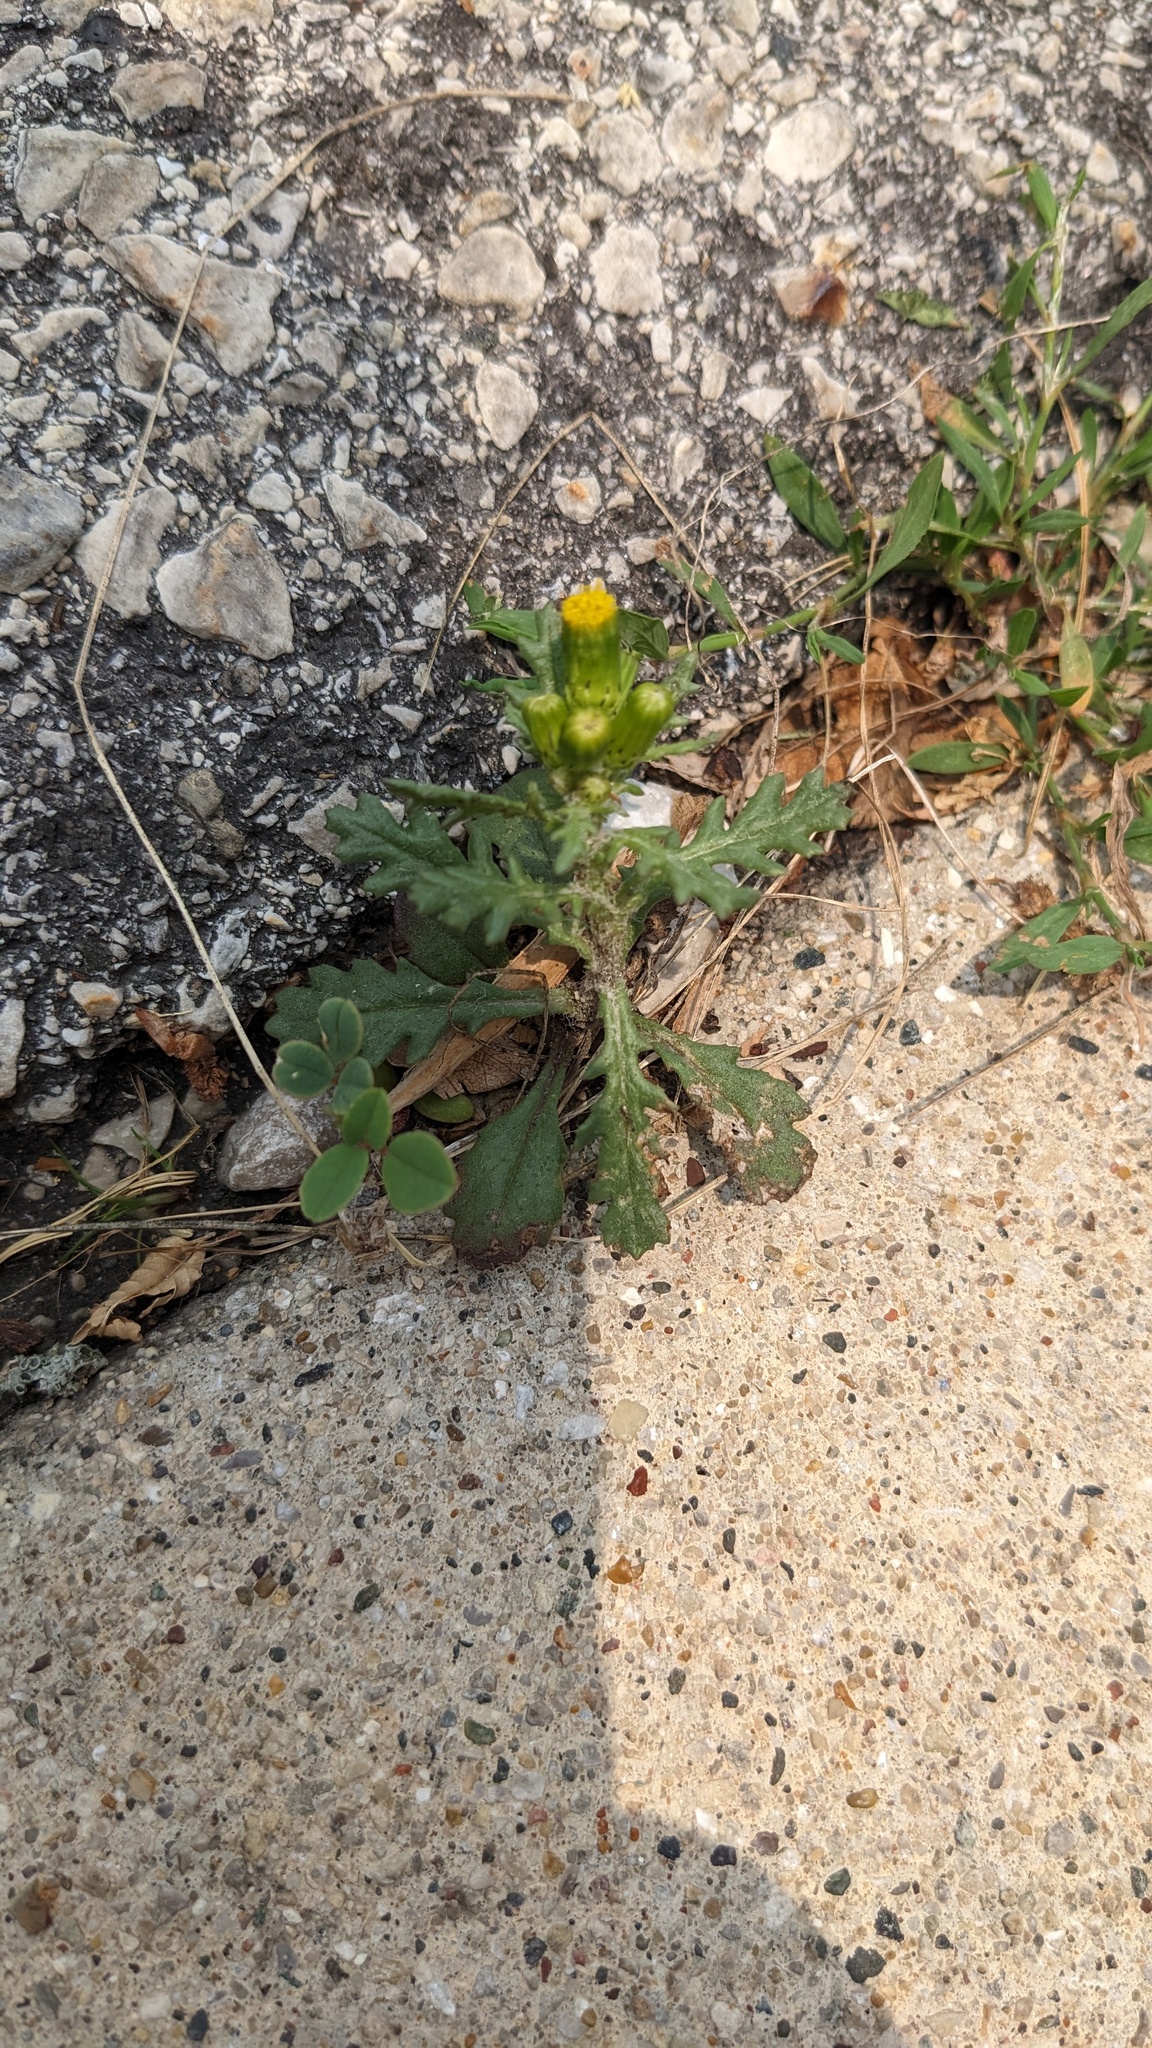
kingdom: Plantae
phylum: Tracheophyta
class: Magnoliopsida
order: Asterales
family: Asteraceae
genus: Senecio
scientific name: Senecio vulgaris
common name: Old-man-in-the-spring
